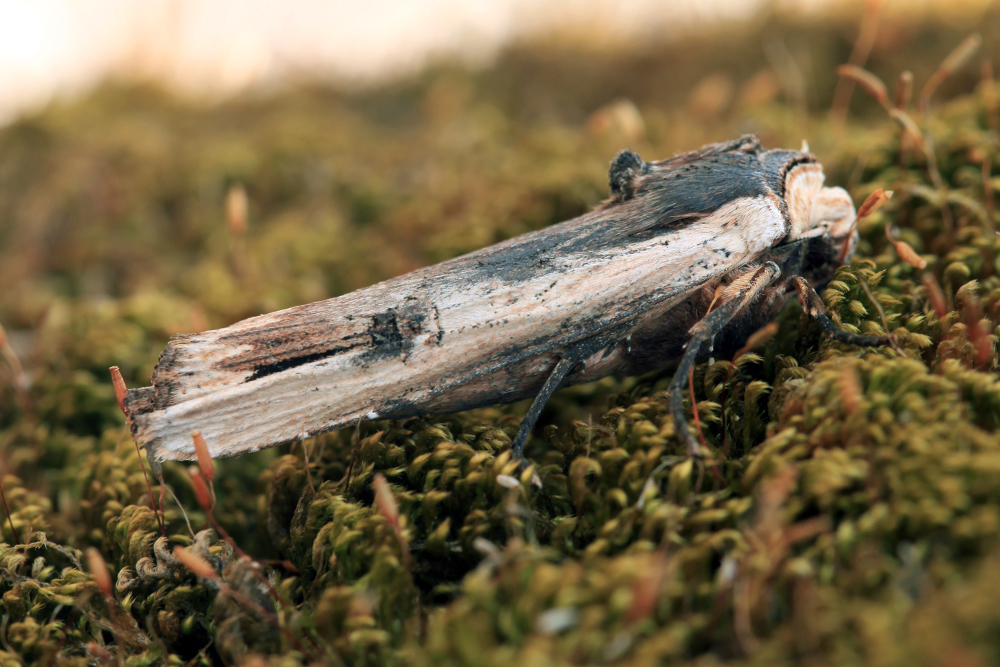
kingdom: Animalia
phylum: Arthropoda
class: Insecta
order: Lepidoptera
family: Noctuidae
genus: Xylena
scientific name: Xylena vetusta
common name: Red sword-grass
